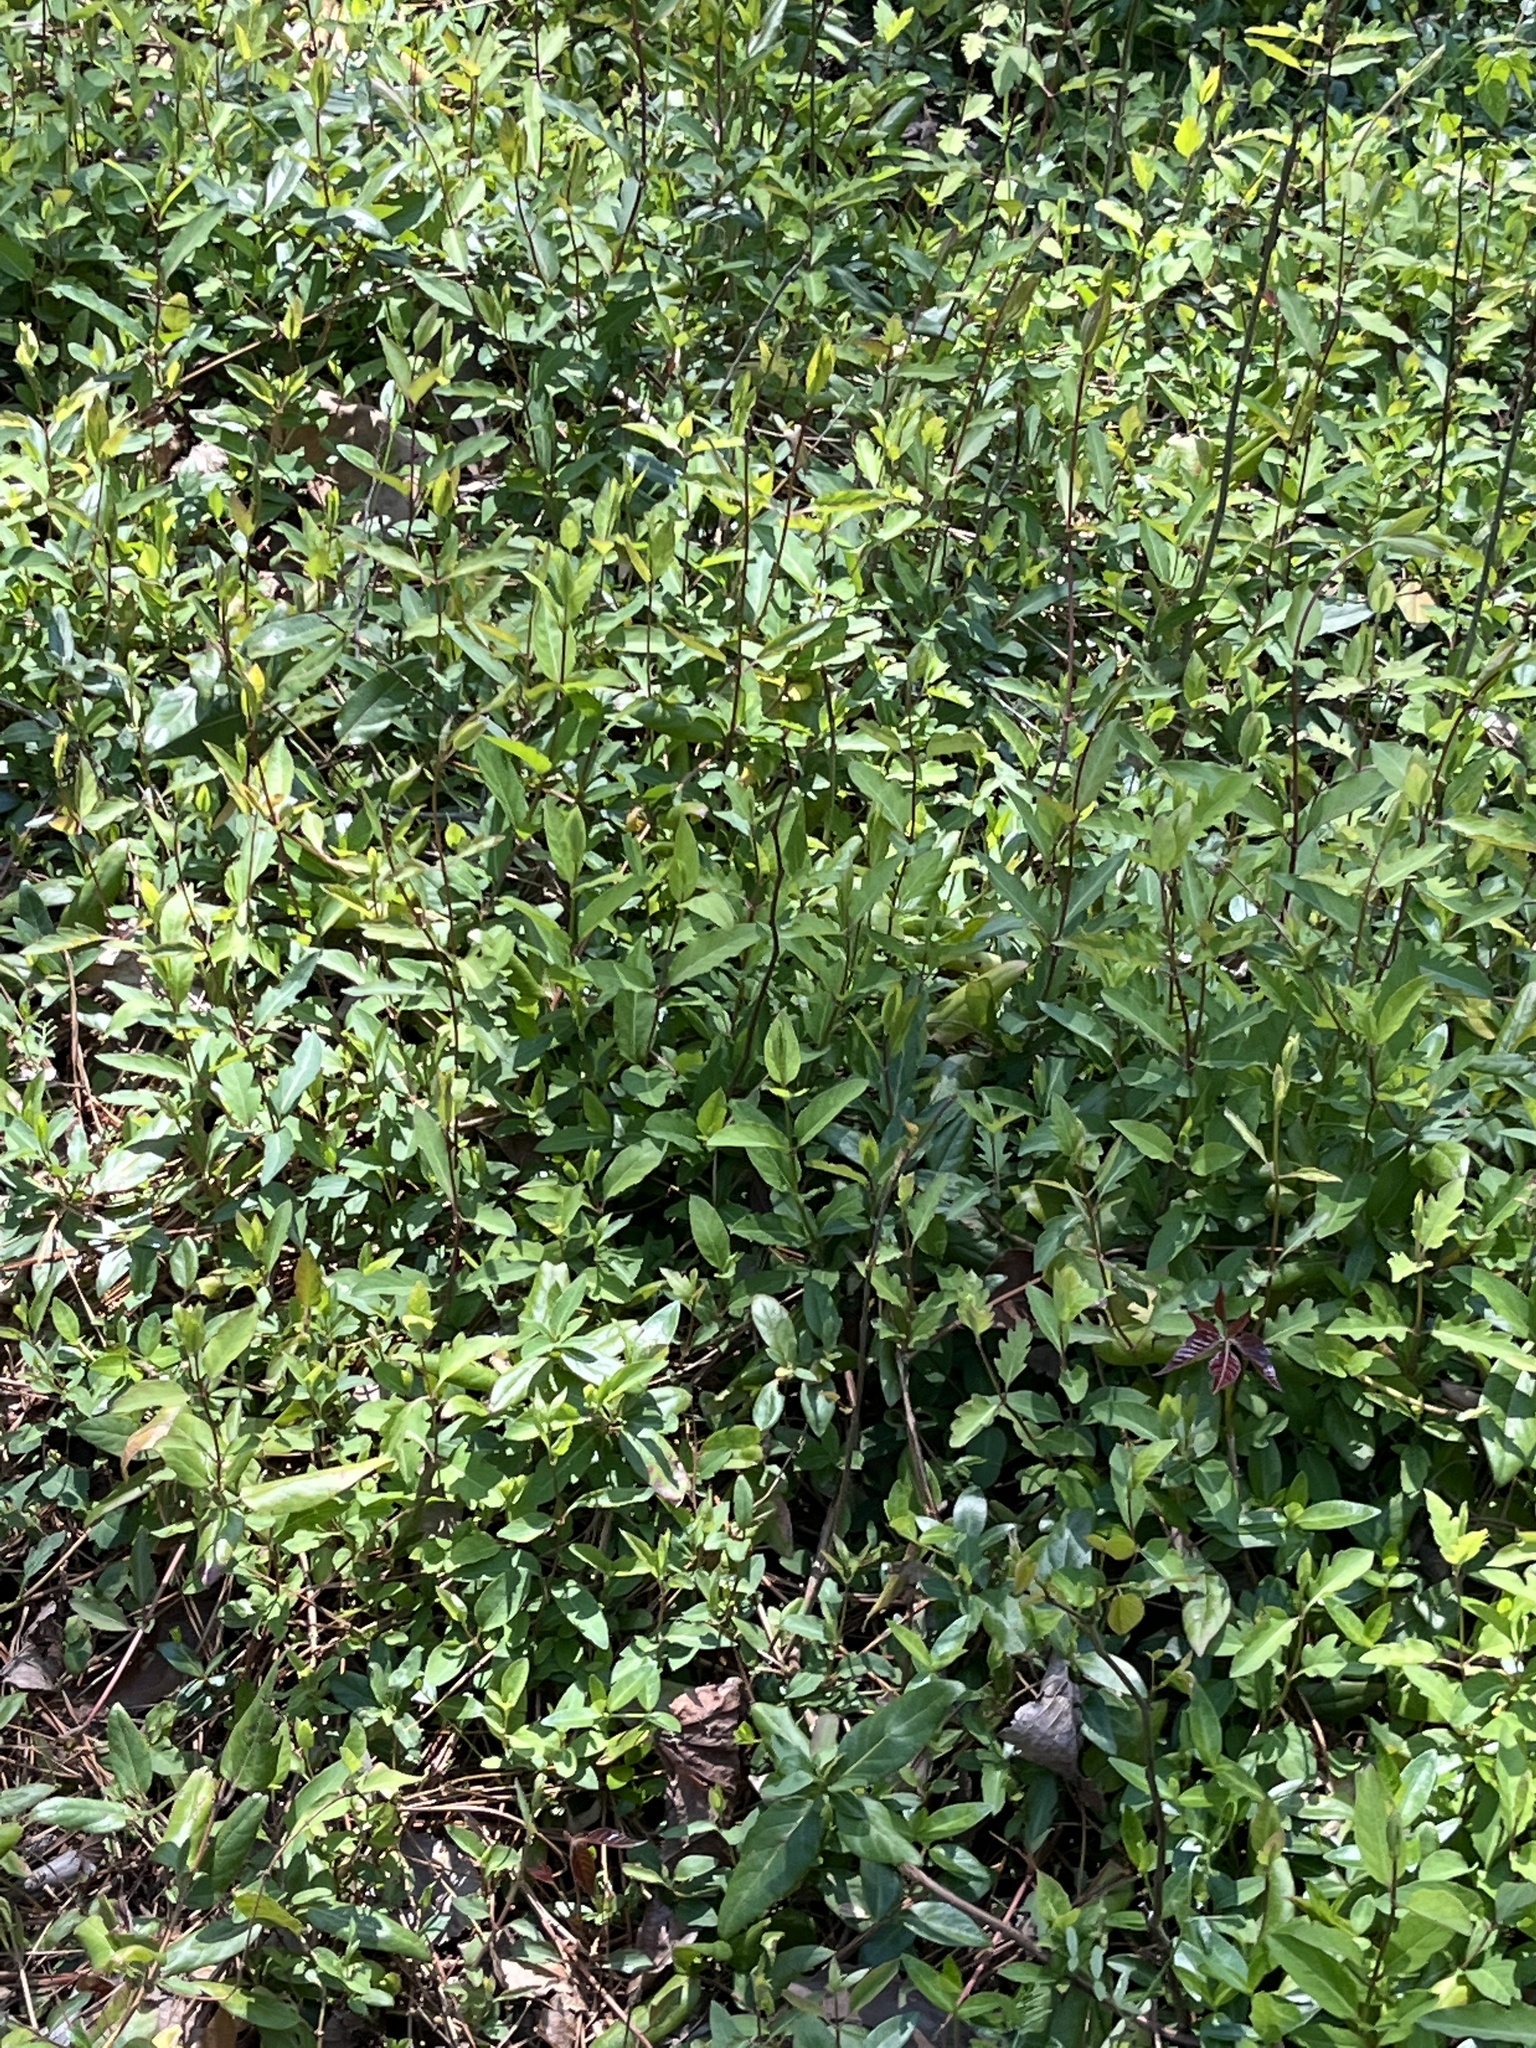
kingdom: Plantae
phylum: Tracheophyta
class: Magnoliopsida
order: Dipsacales
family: Caprifoliaceae
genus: Lonicera
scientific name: Lonicera japonica
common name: Japanese honeysuckle
